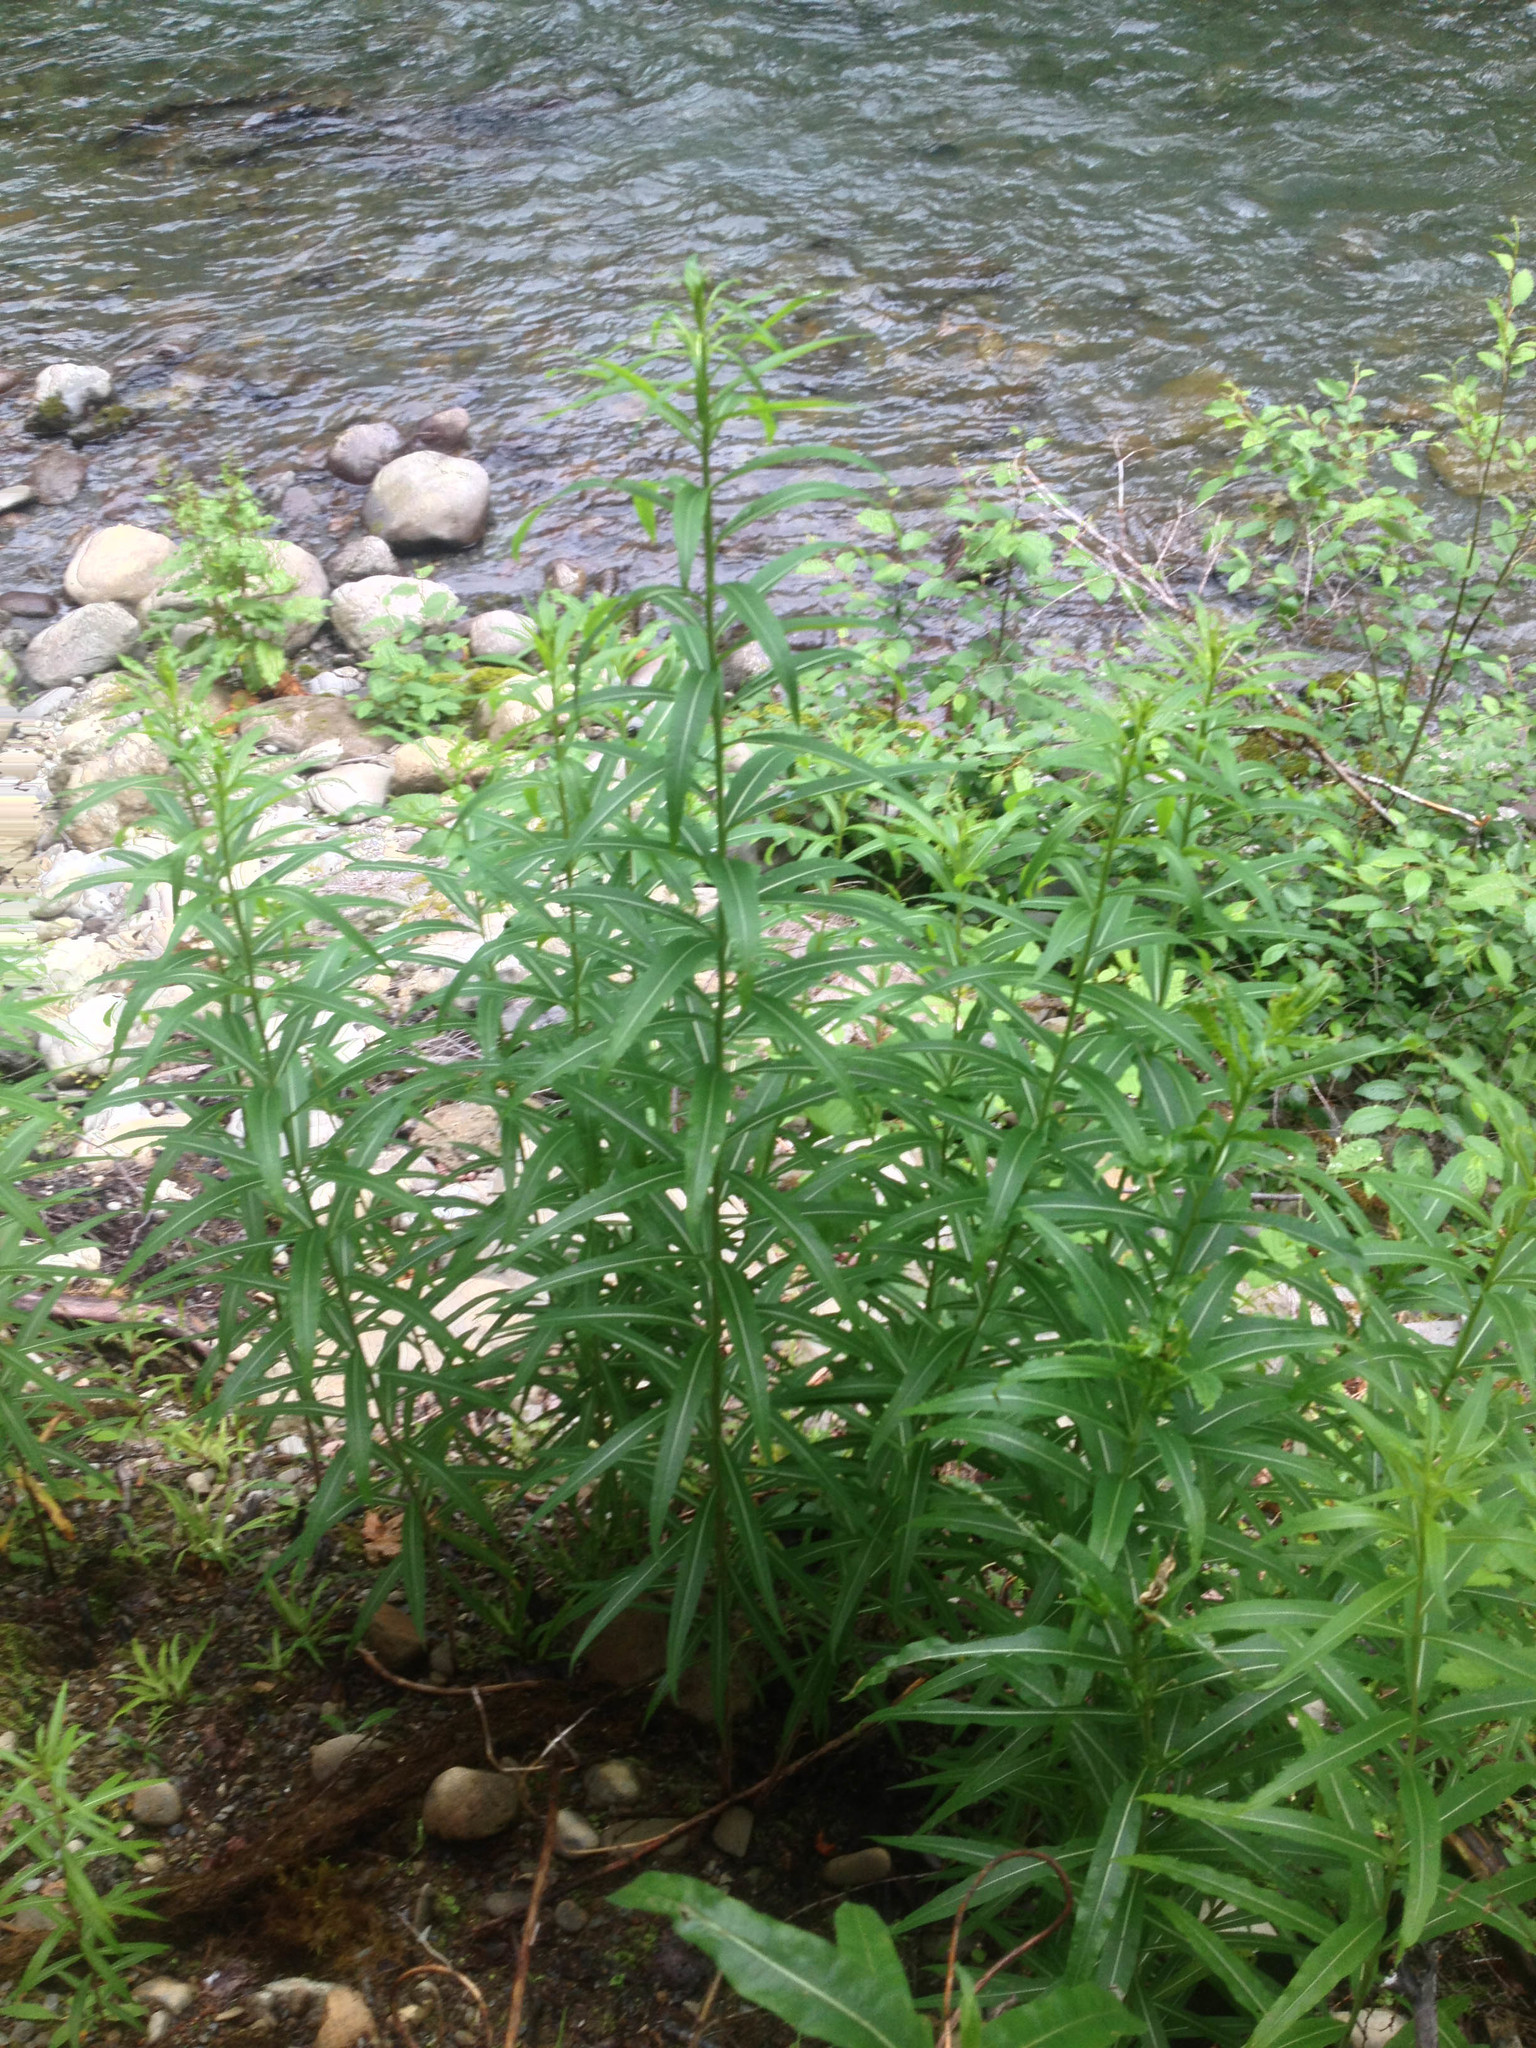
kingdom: Plantae
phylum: Tracheophyta
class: Magnoliopsida
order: Myrtales
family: Onagraceae
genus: Chamaenerion
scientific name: Chamaenerion angustifolium
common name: Fireweed
